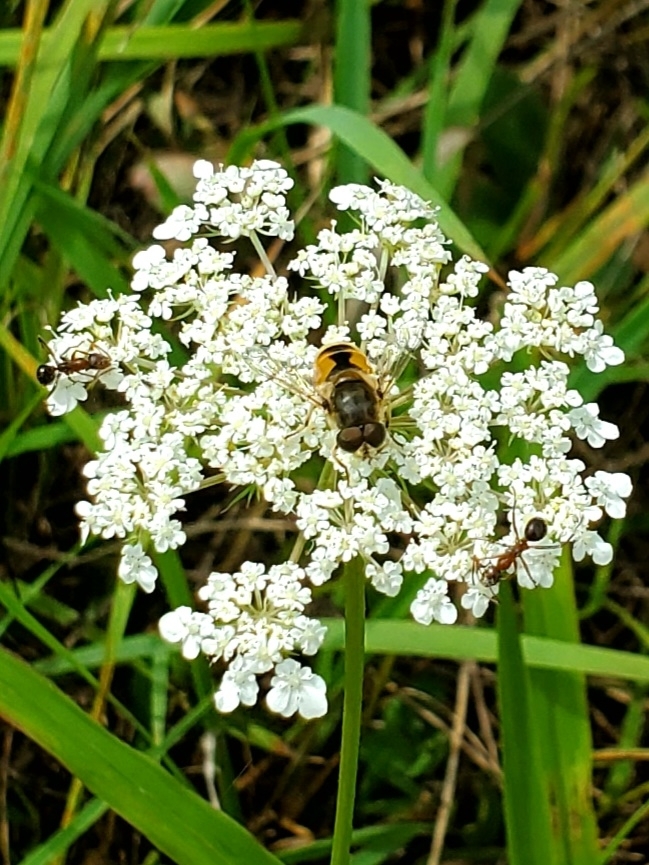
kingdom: Animalia
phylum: Arthropoda
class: Insecta
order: Diptera
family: Syrphidae
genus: Eristalis
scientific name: Eristalis arbustorum
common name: Hover fly
